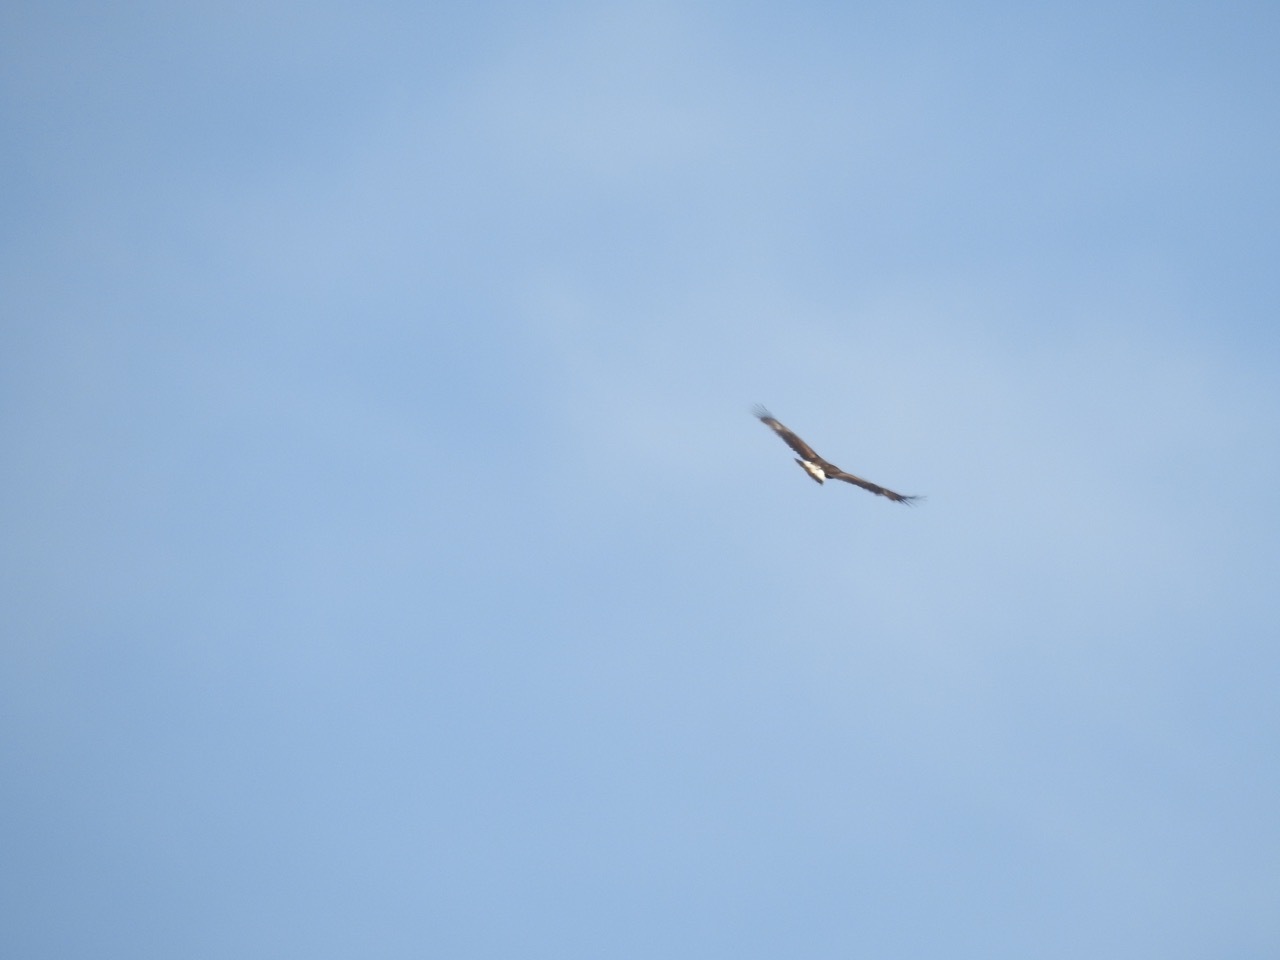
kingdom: Animalia
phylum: Chordata
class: Aves
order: Accipitriformes
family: Accipitridae
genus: Aquila
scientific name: Aquila chrysaetos
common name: Golden eagle
